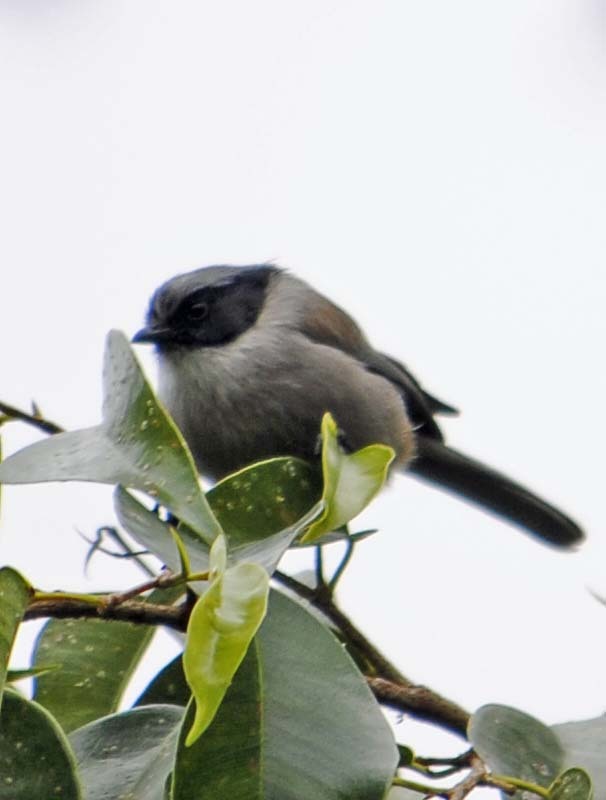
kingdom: Animalia
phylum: Chordata
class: Aves
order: Passeriformes
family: Aegithalidae
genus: Psaltriparus
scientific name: Psaltriparus minimus
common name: American bushtit
